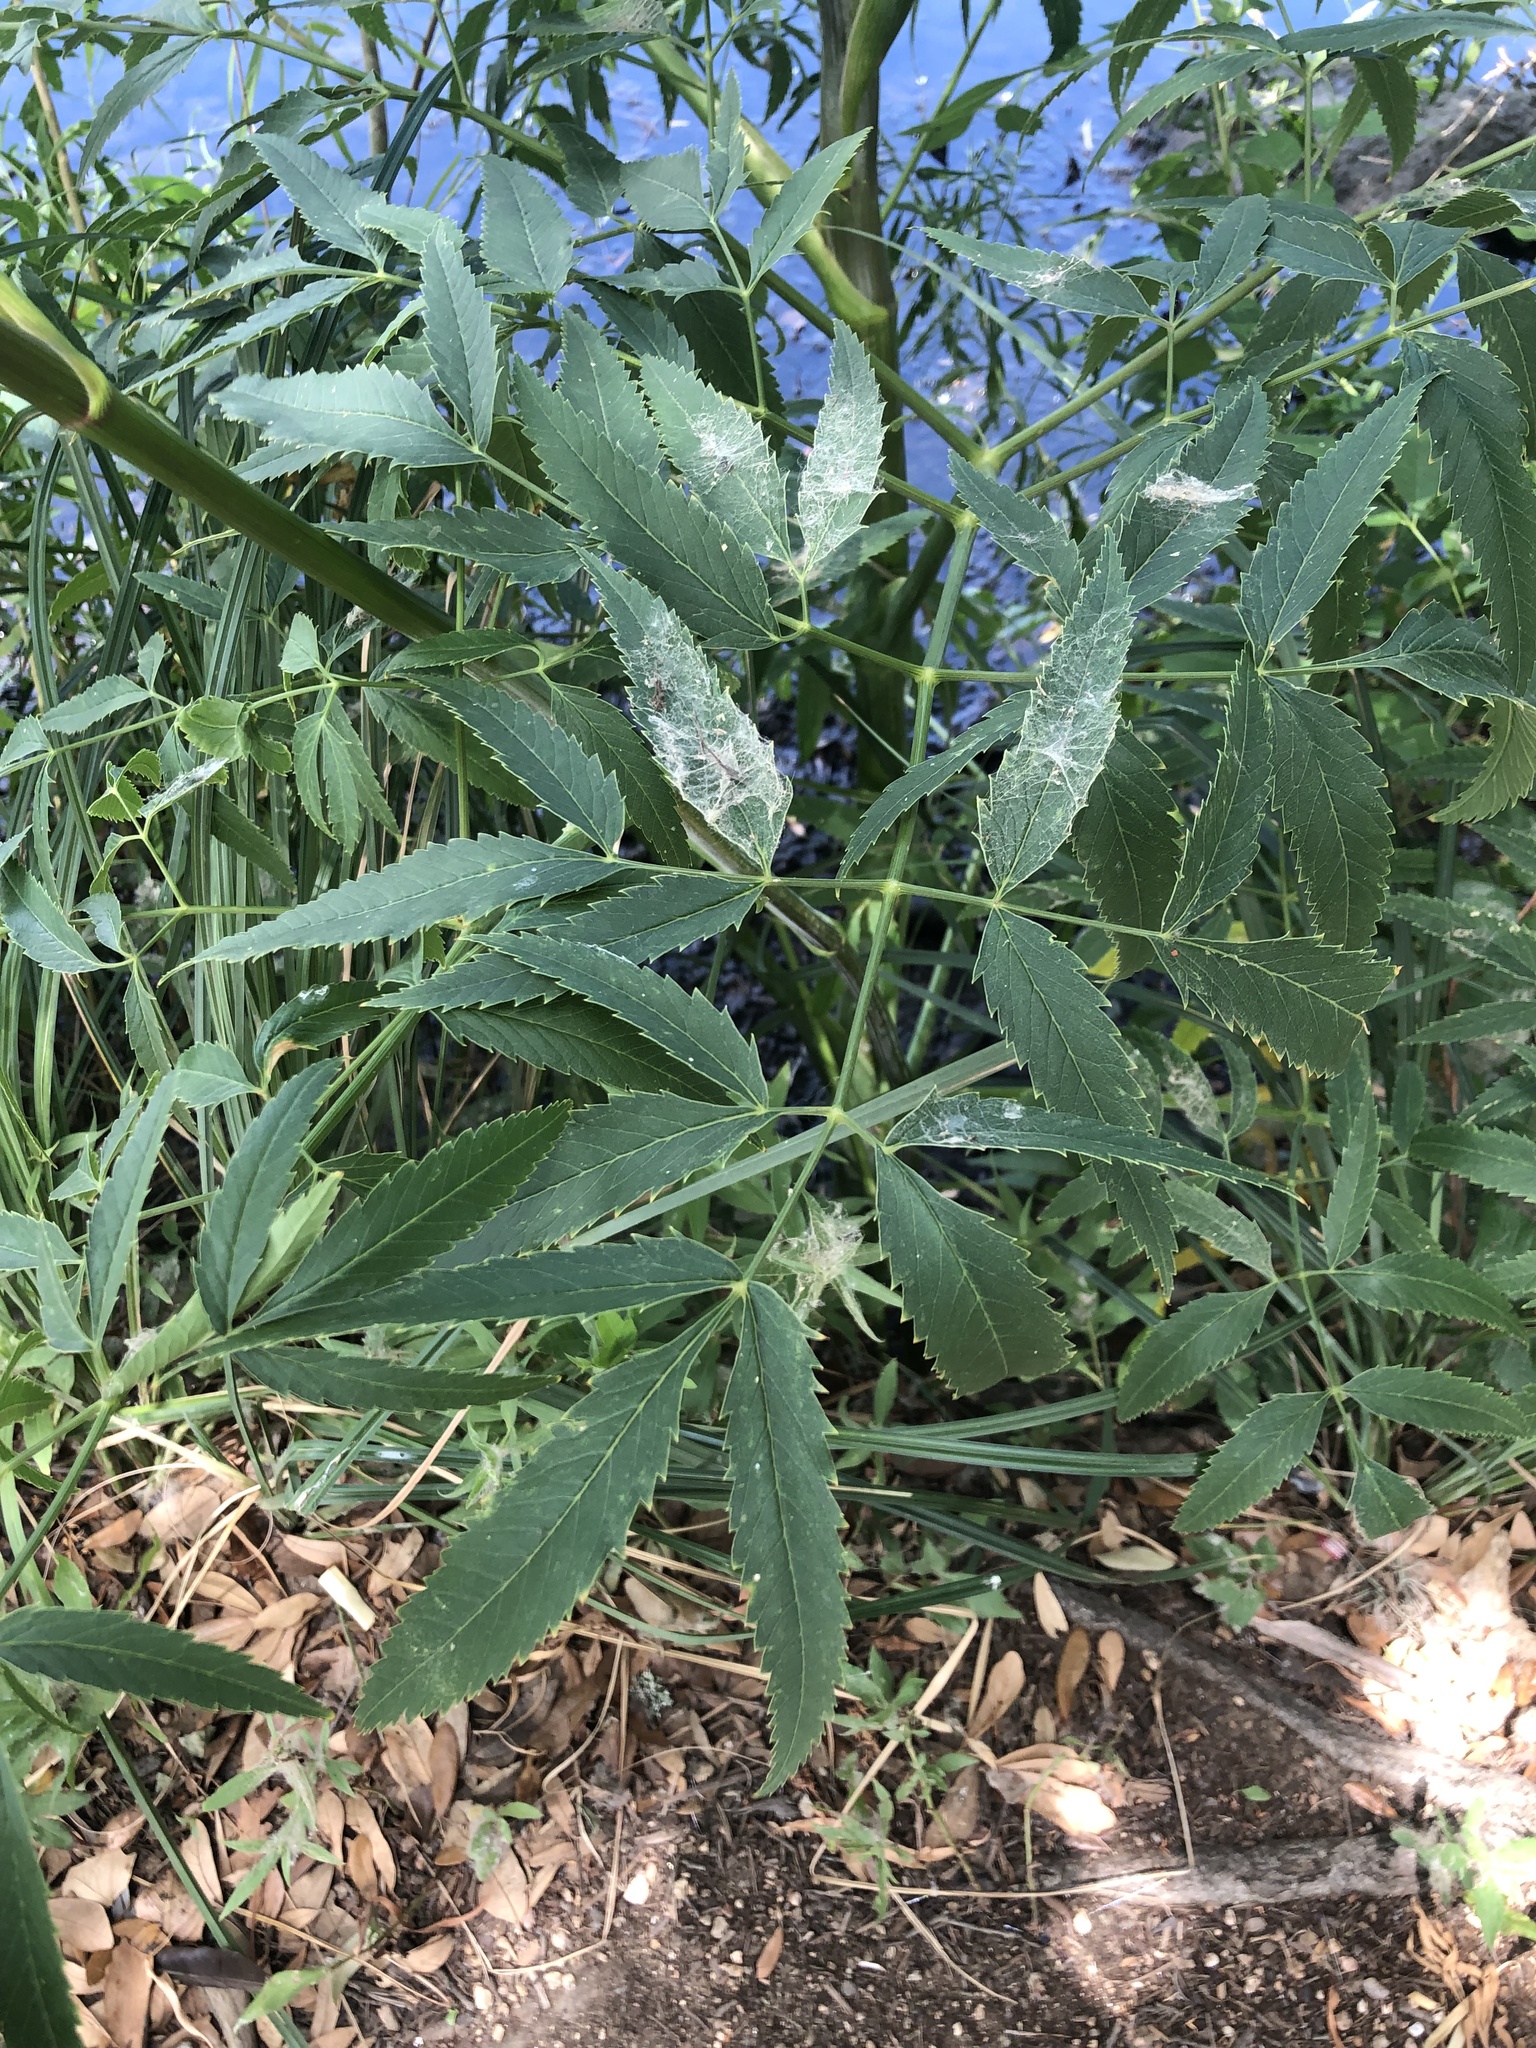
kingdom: Plantae
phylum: Tracheophyta
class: Magnoliopsida
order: Apiales
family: Apiaceae
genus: Cicuta
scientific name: Cicuta maculata
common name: Spotted cowbane
